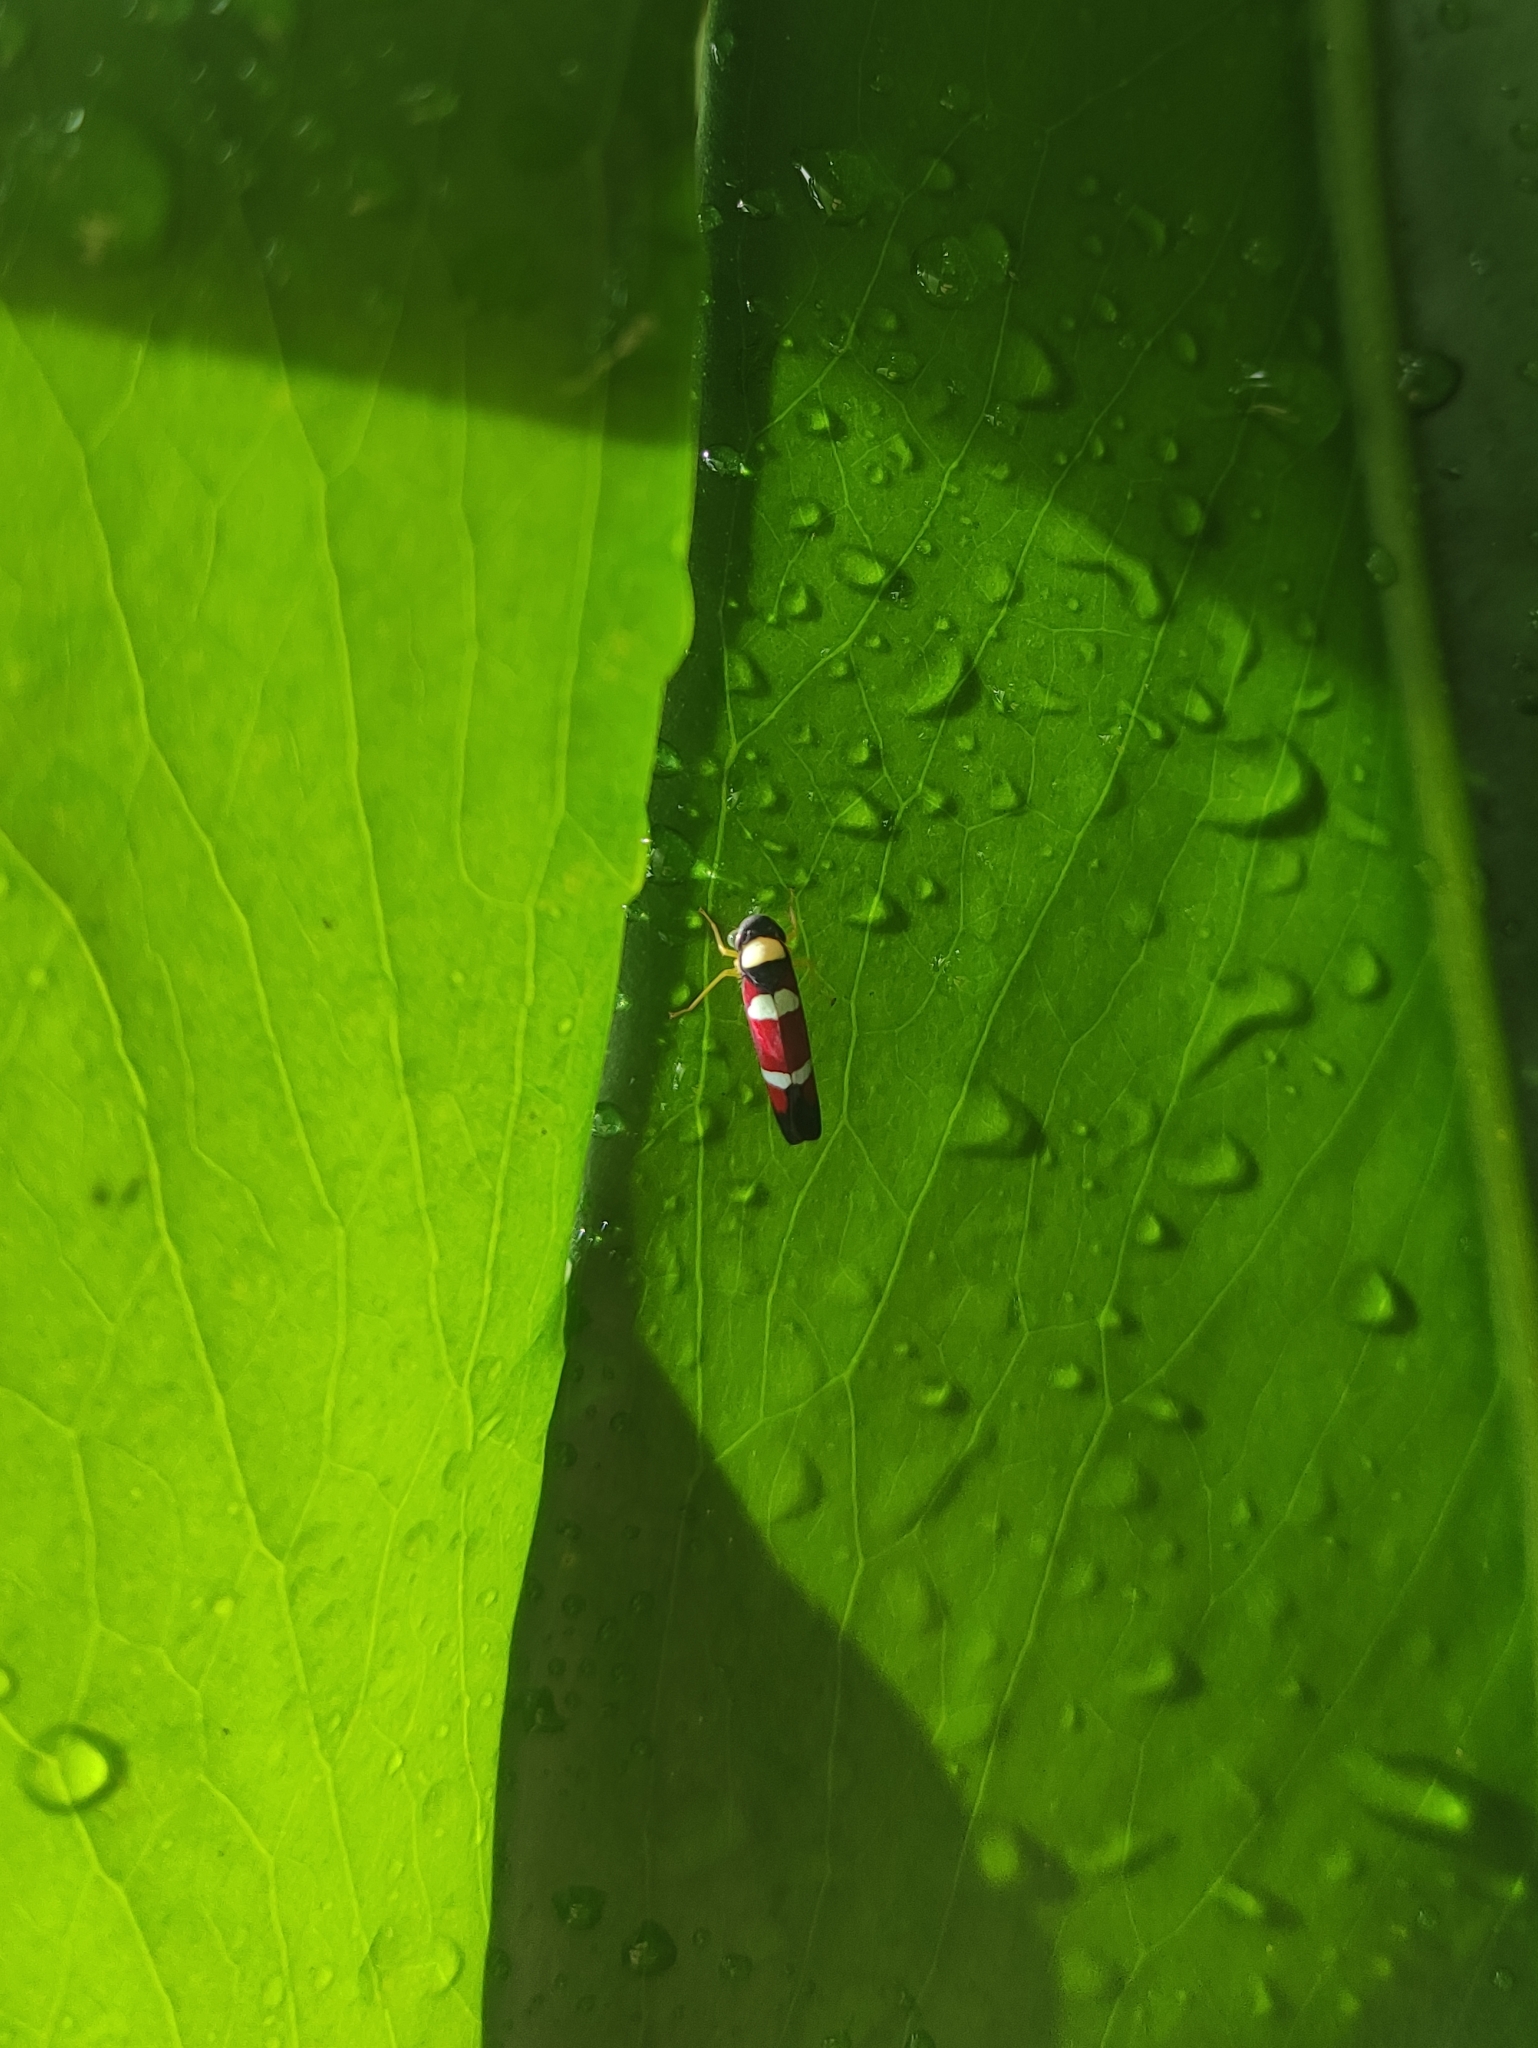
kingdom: Animalia
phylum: Arthropoda
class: Insecta
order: Hemiptera
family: Cicadellidae
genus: Erythrogonia
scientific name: Erythrogonia phoenicea
